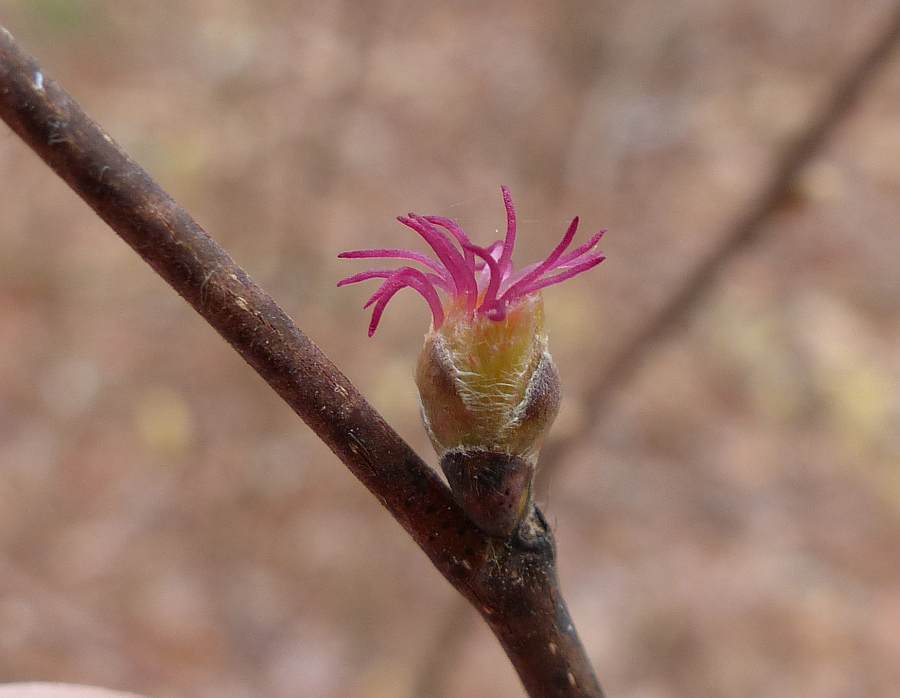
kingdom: Plantae
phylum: Tracheophyta
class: Magnoliopsida
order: Fagales
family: Betulaceae
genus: Corylus
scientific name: Corylus cornuta
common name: Beaked hazel
